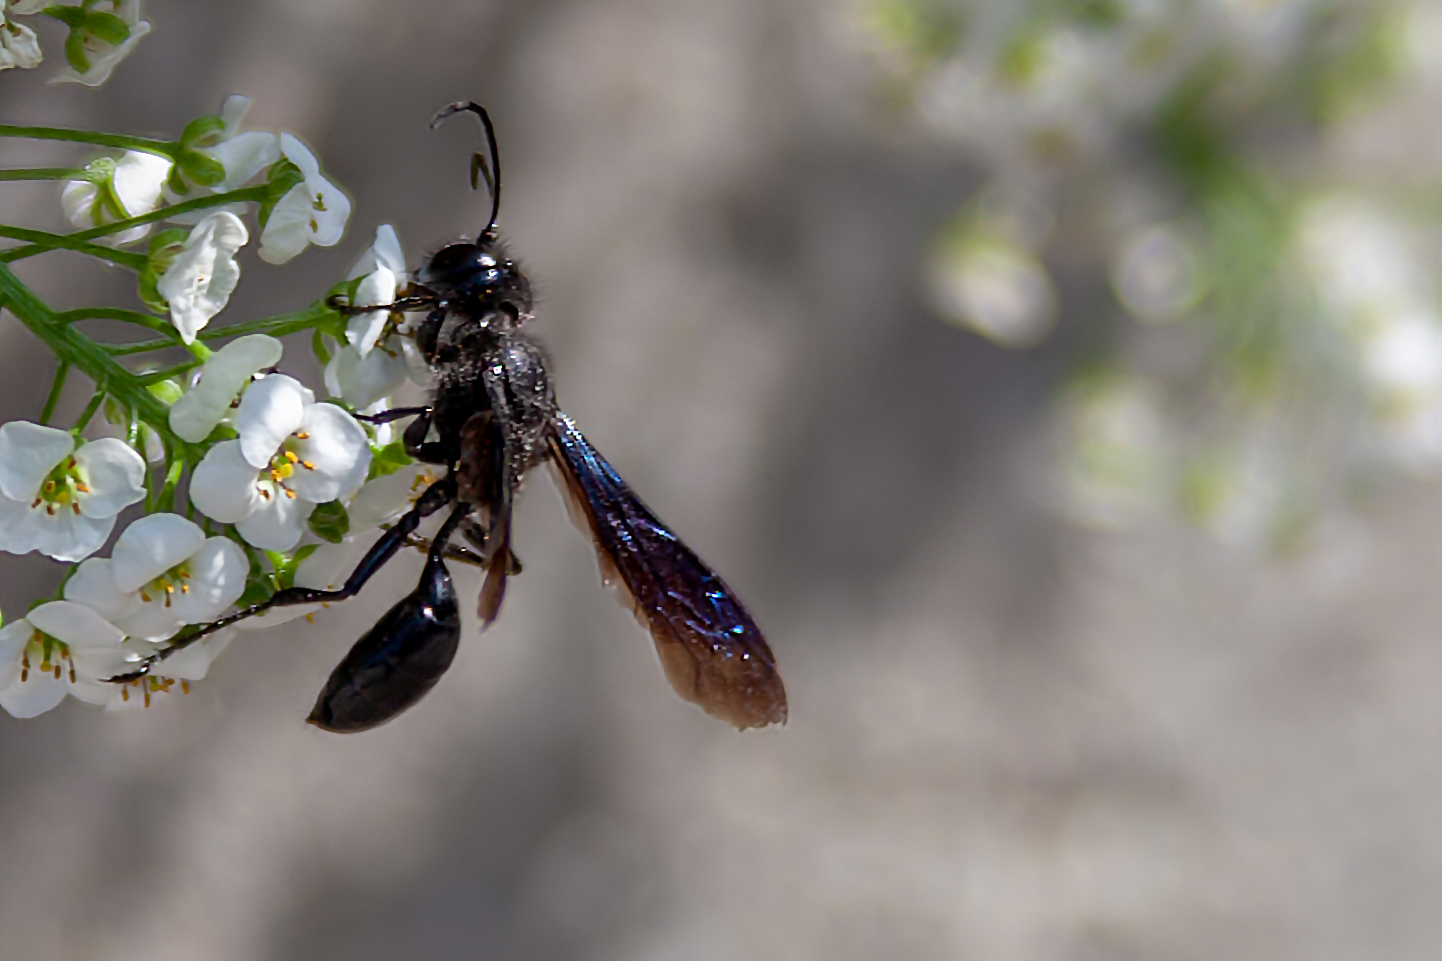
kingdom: Animalia
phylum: Arthropoda
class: Insecta
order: Hymenoptera
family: Sphecidae
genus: Sphex
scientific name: Sphex pensylvanicus
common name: Great black digger wasp
